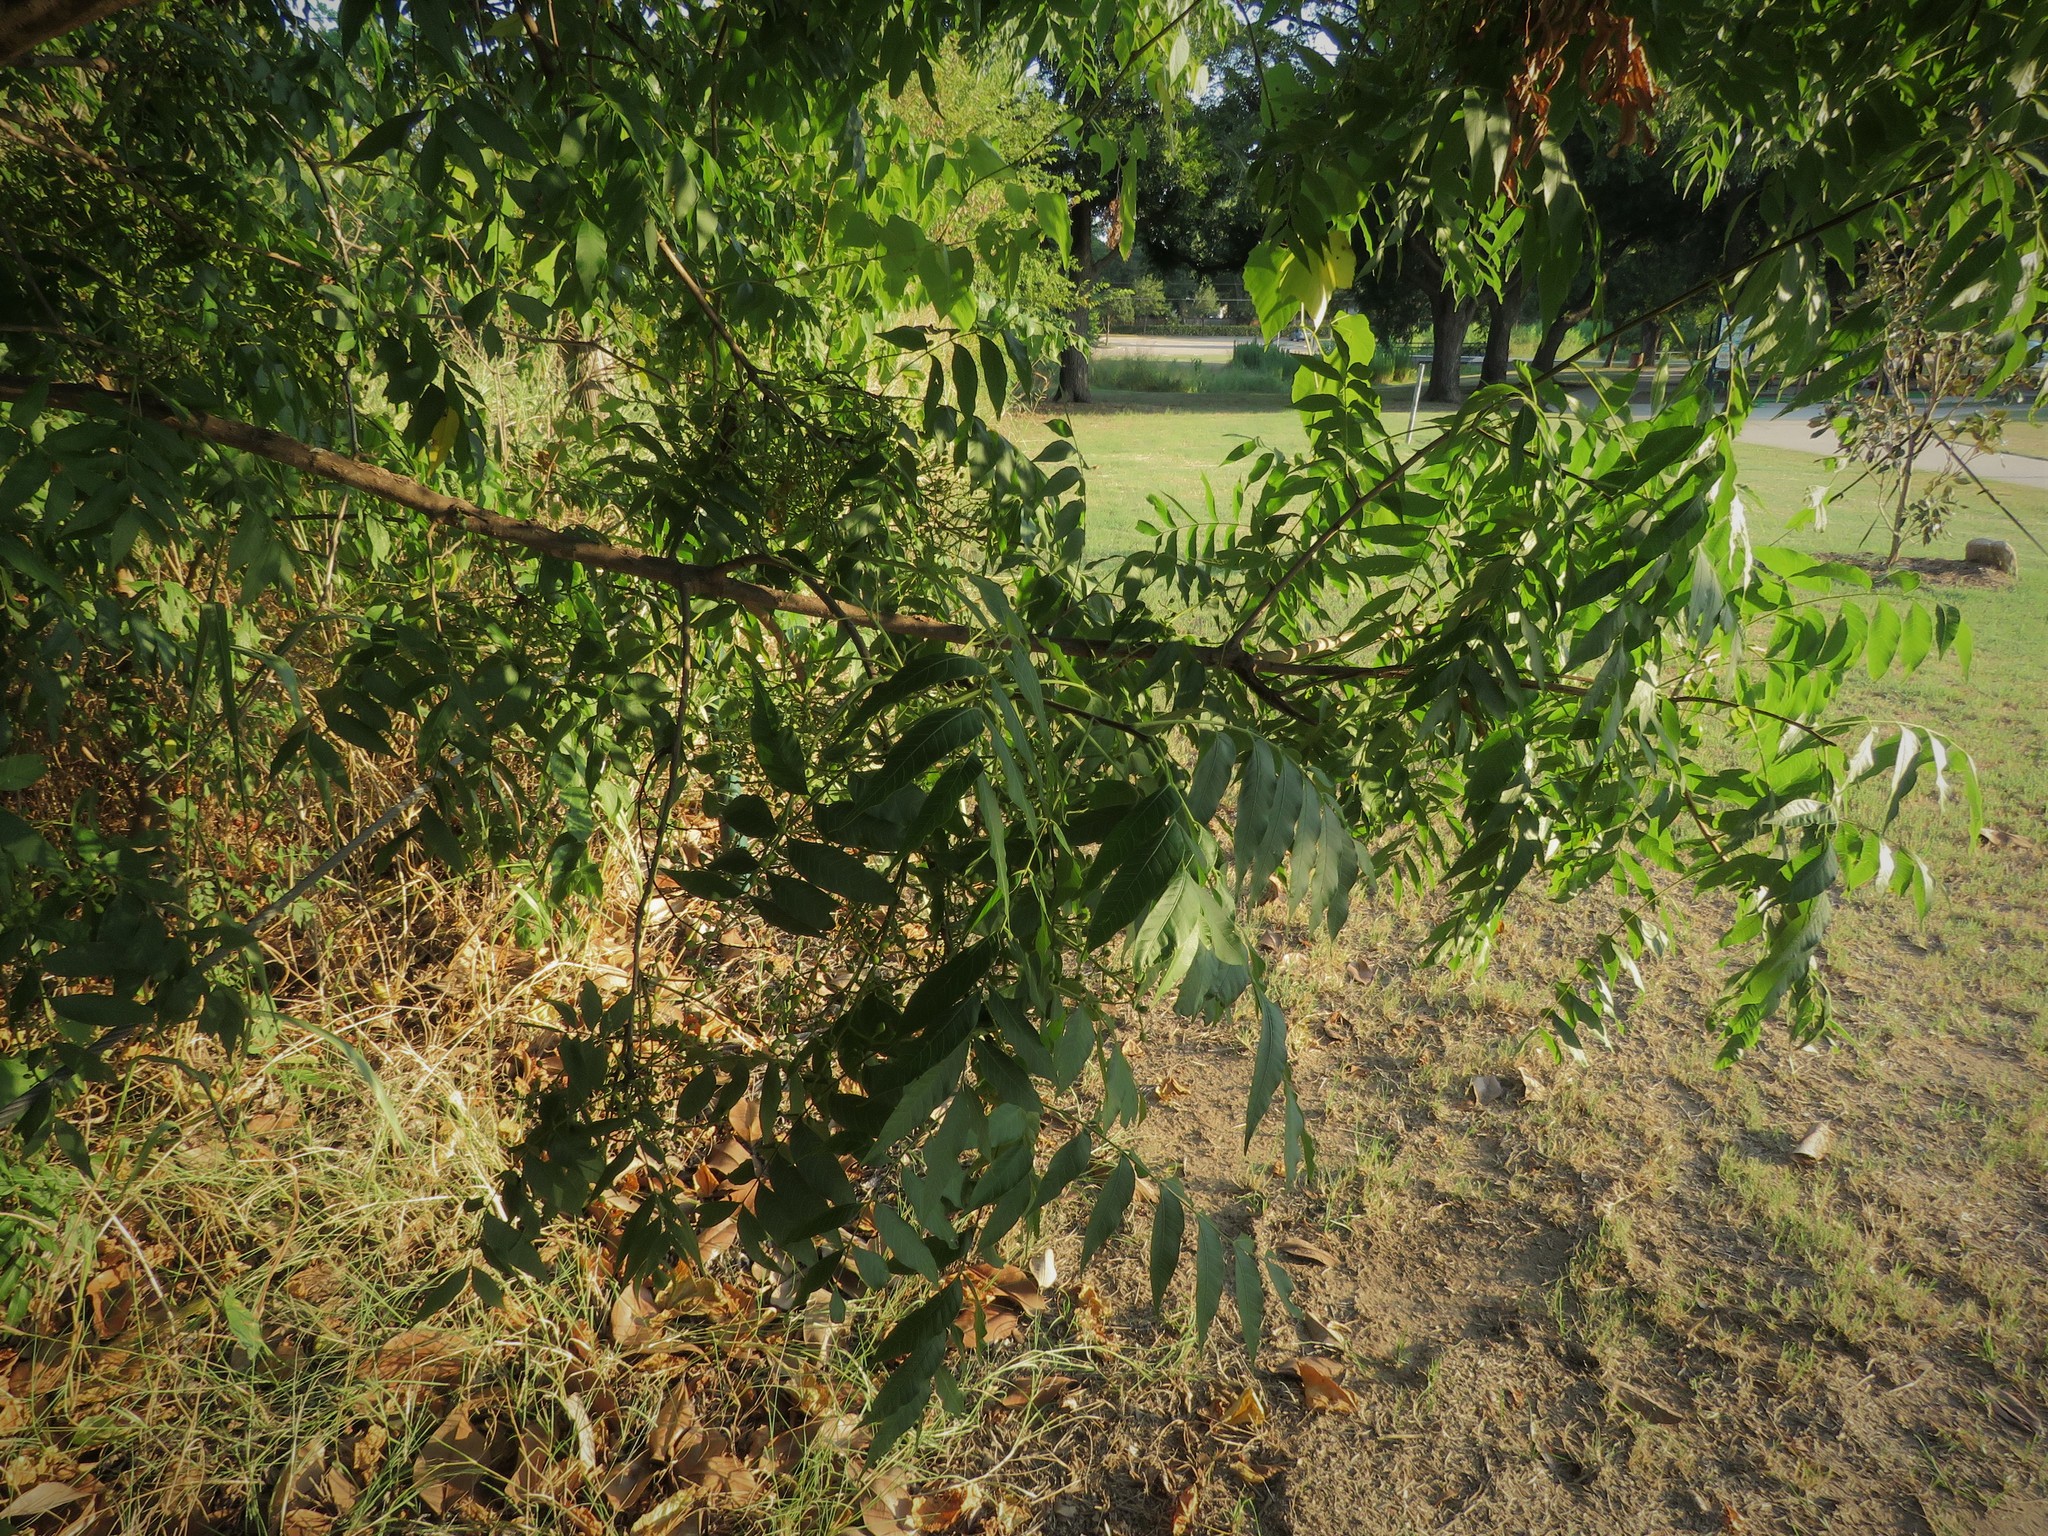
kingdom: Plantae
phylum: Tracheophyta
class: Magnoliopsida
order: Sapindales
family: Anacardiaceae
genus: Pistacia
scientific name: Pistacia chinensis
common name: Chinese pistache
